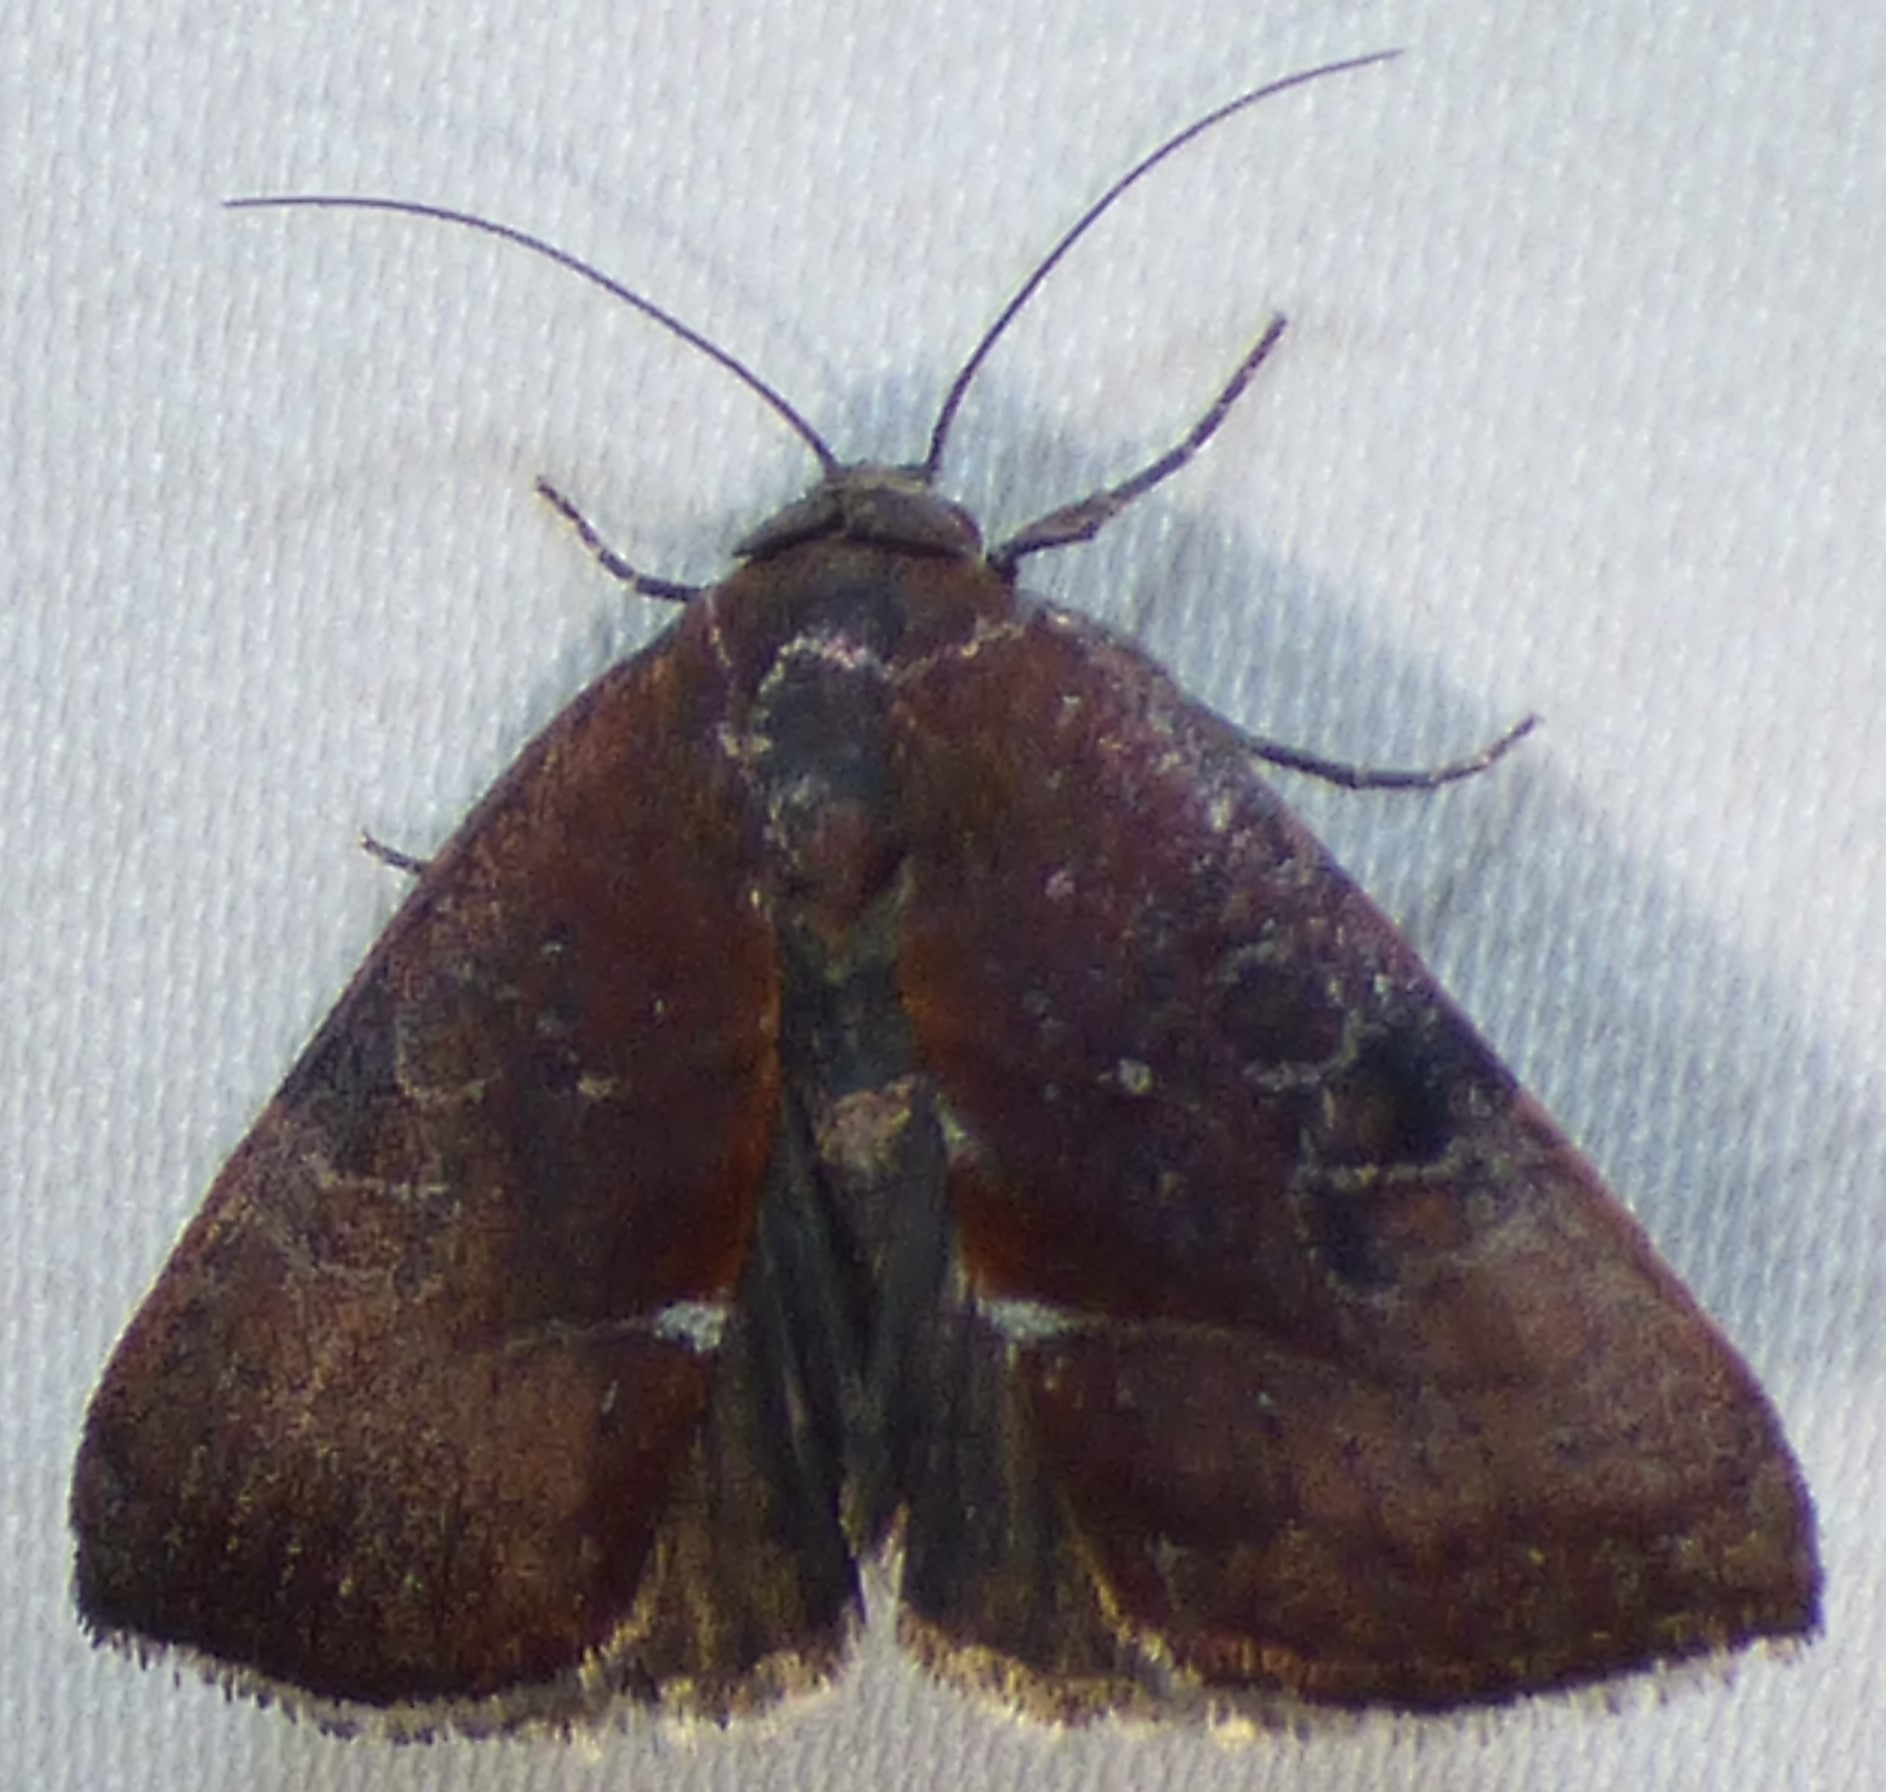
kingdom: Animalia
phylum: Arthropoda
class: Insecta
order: Lepidoptera
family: Noctuidae
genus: Galgula
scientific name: Galgula partita
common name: Wedgeling
